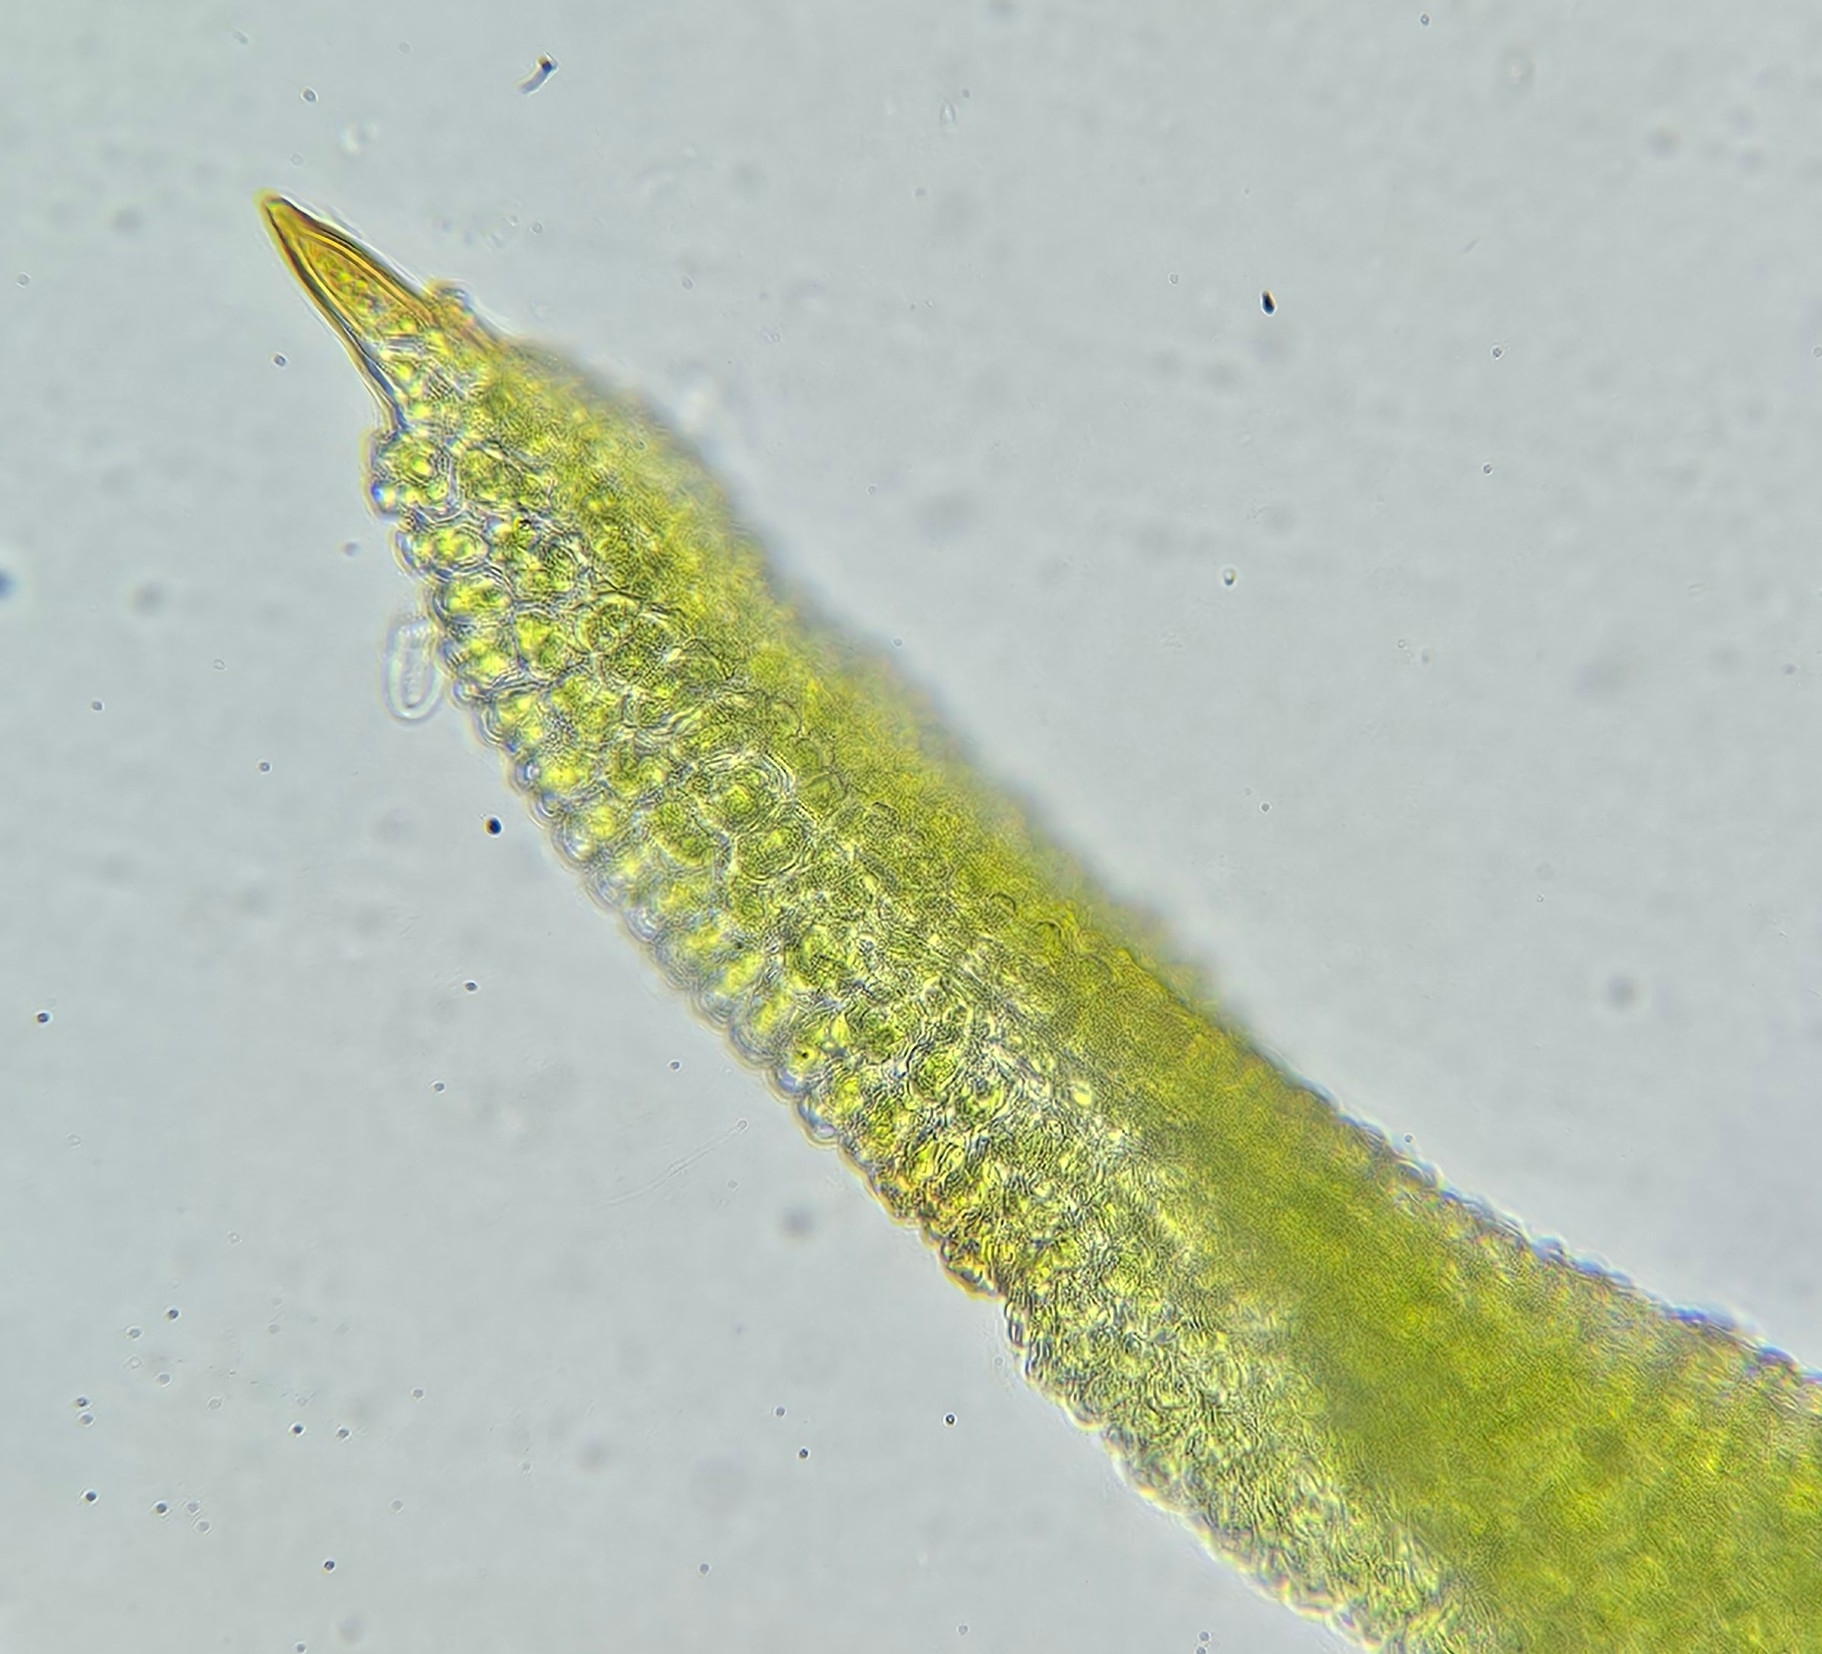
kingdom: Plantae
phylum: Bryophyta
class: Bryopsida
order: Pottiales
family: Pottiaceae
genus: Bryoerythrophyllum
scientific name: Bryoerythrophyllum recurvirostrum
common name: Red beard moss
